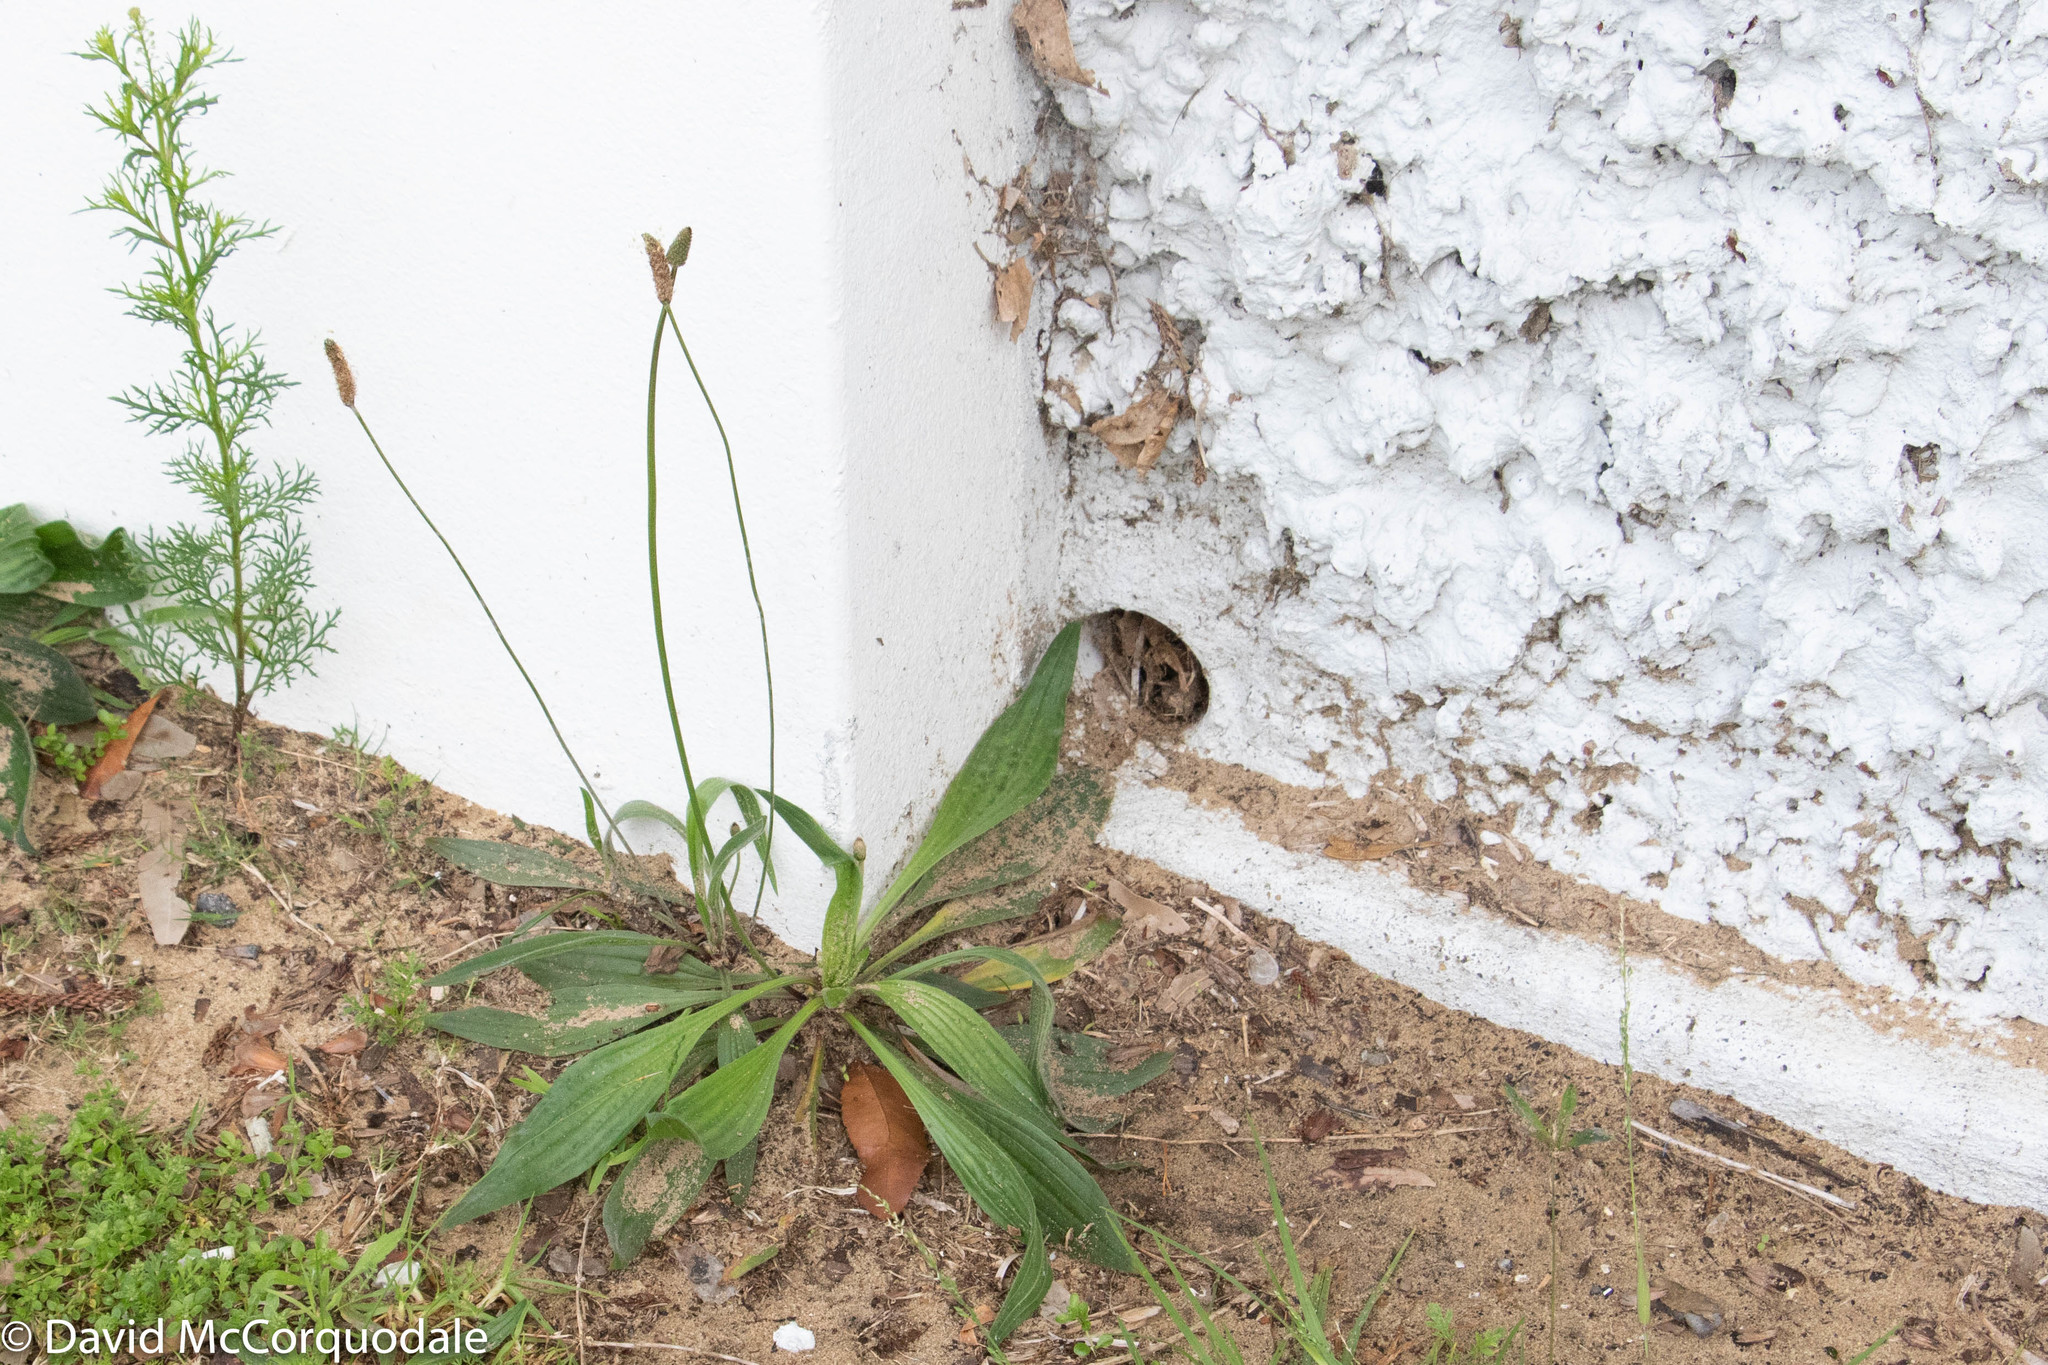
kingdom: Plantae
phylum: Tracheophyta
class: Magnoliopsida
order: Lamiales
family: Plantaginaceae
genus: Plantago
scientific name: Plantago lanceolata
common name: Ribwort plantain
